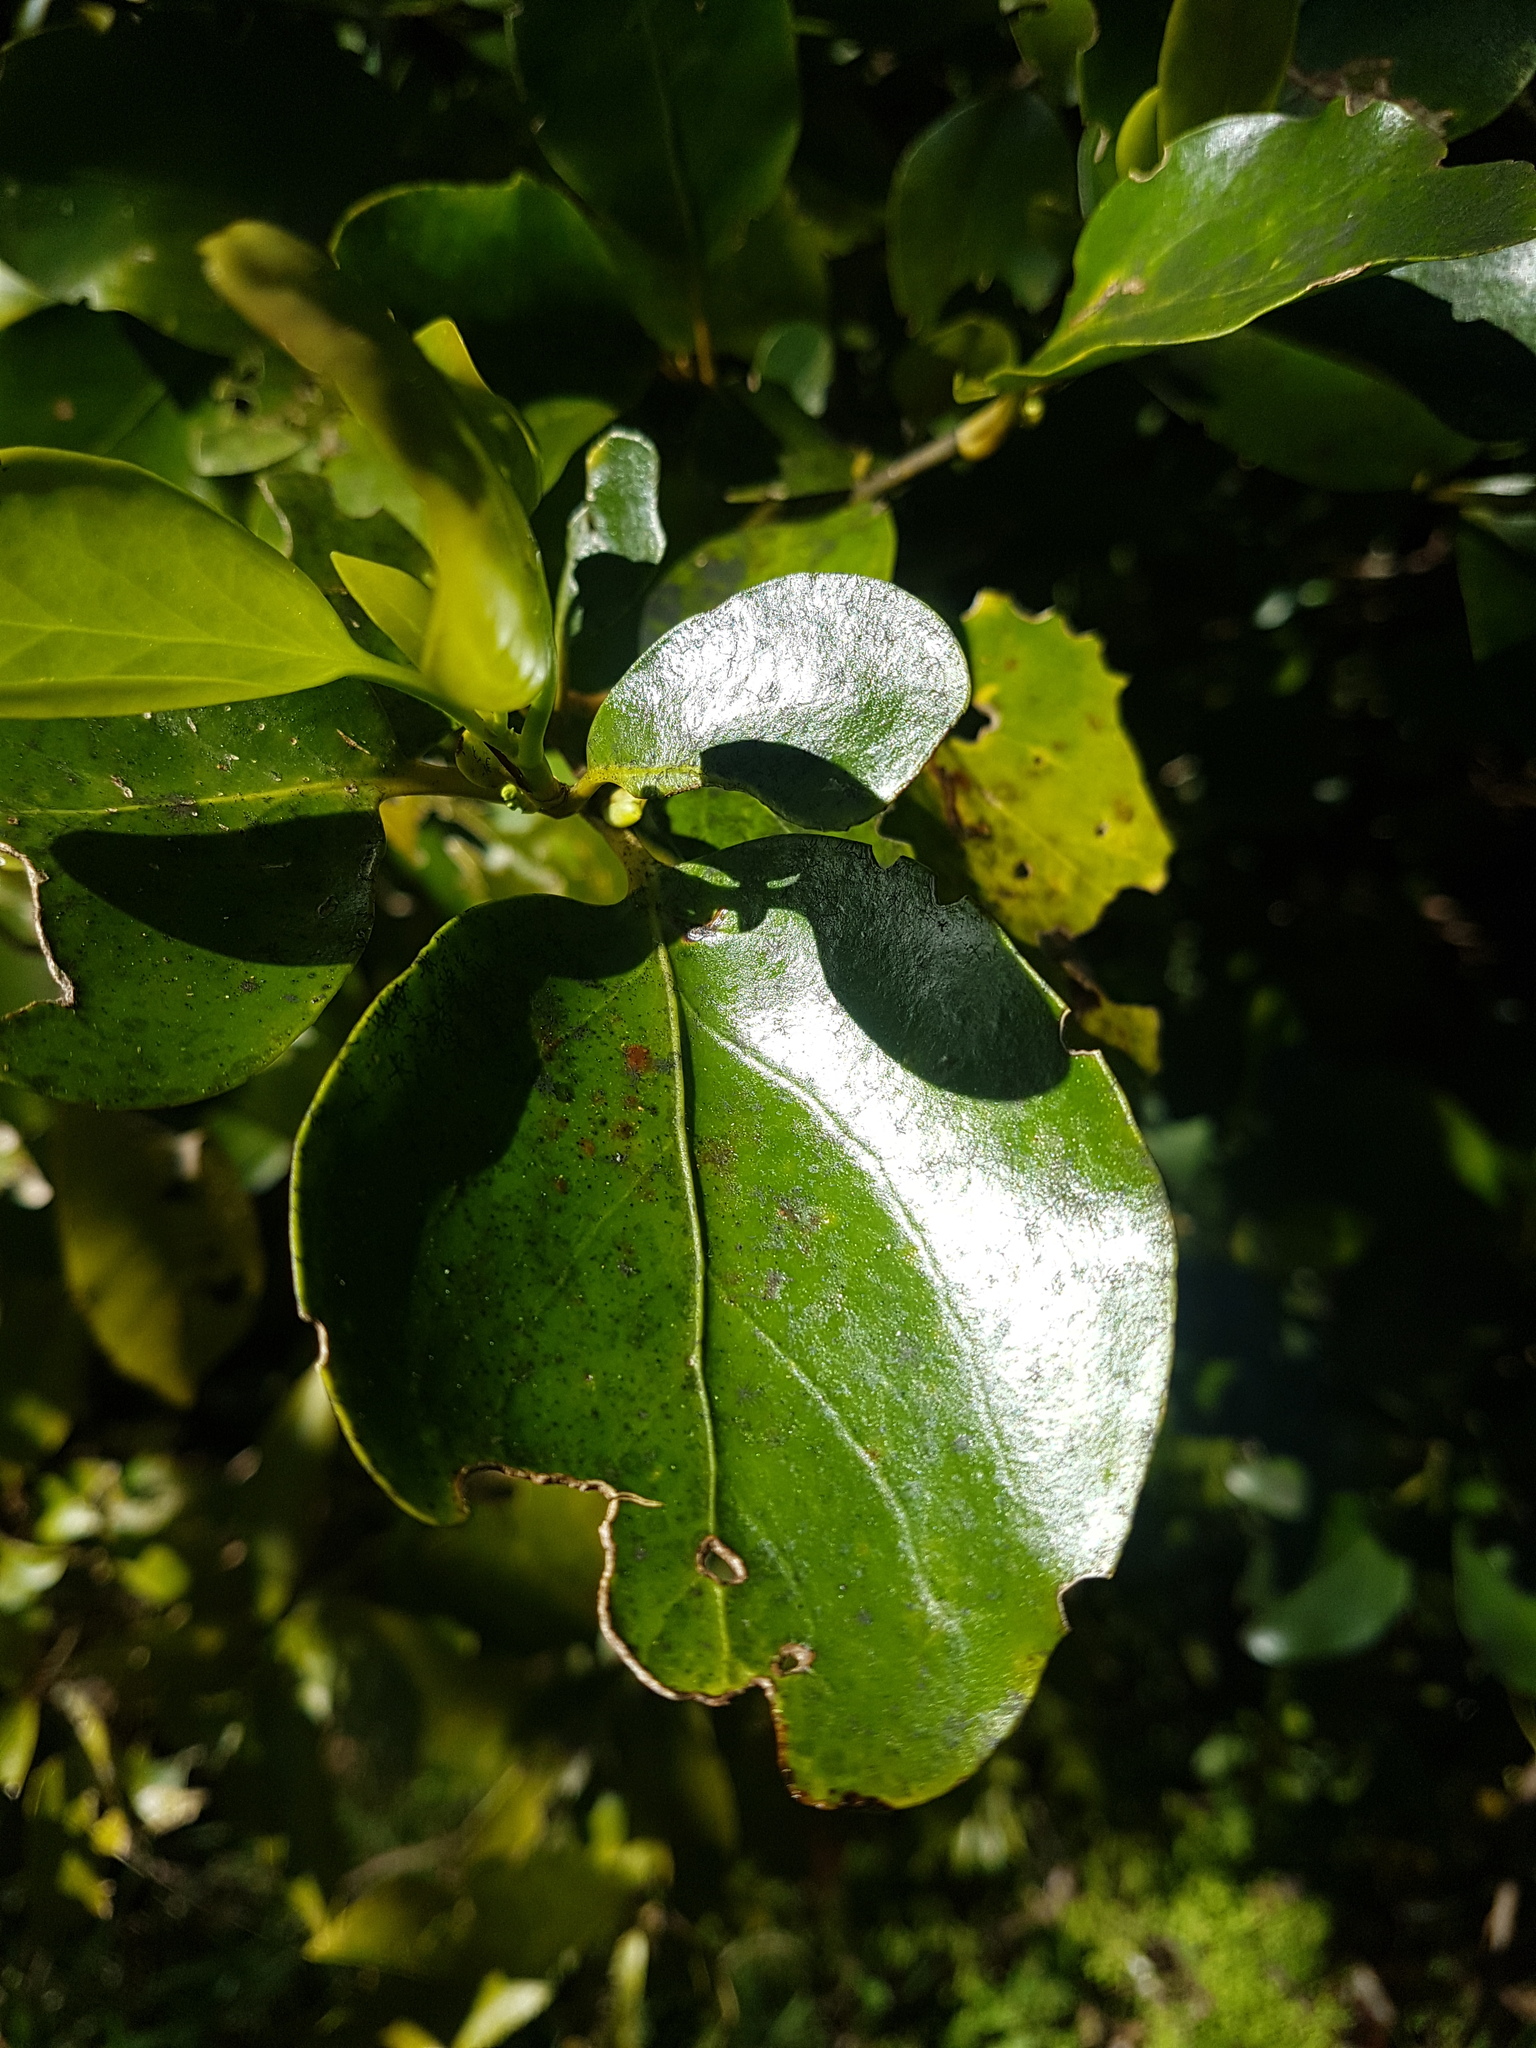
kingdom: Plantae
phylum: Tracheophyta
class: Magnoliopsida
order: Apiales
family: Griseliniaceae
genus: Griselinia
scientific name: Griselinia littoralis
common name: New zealand broadleaf
